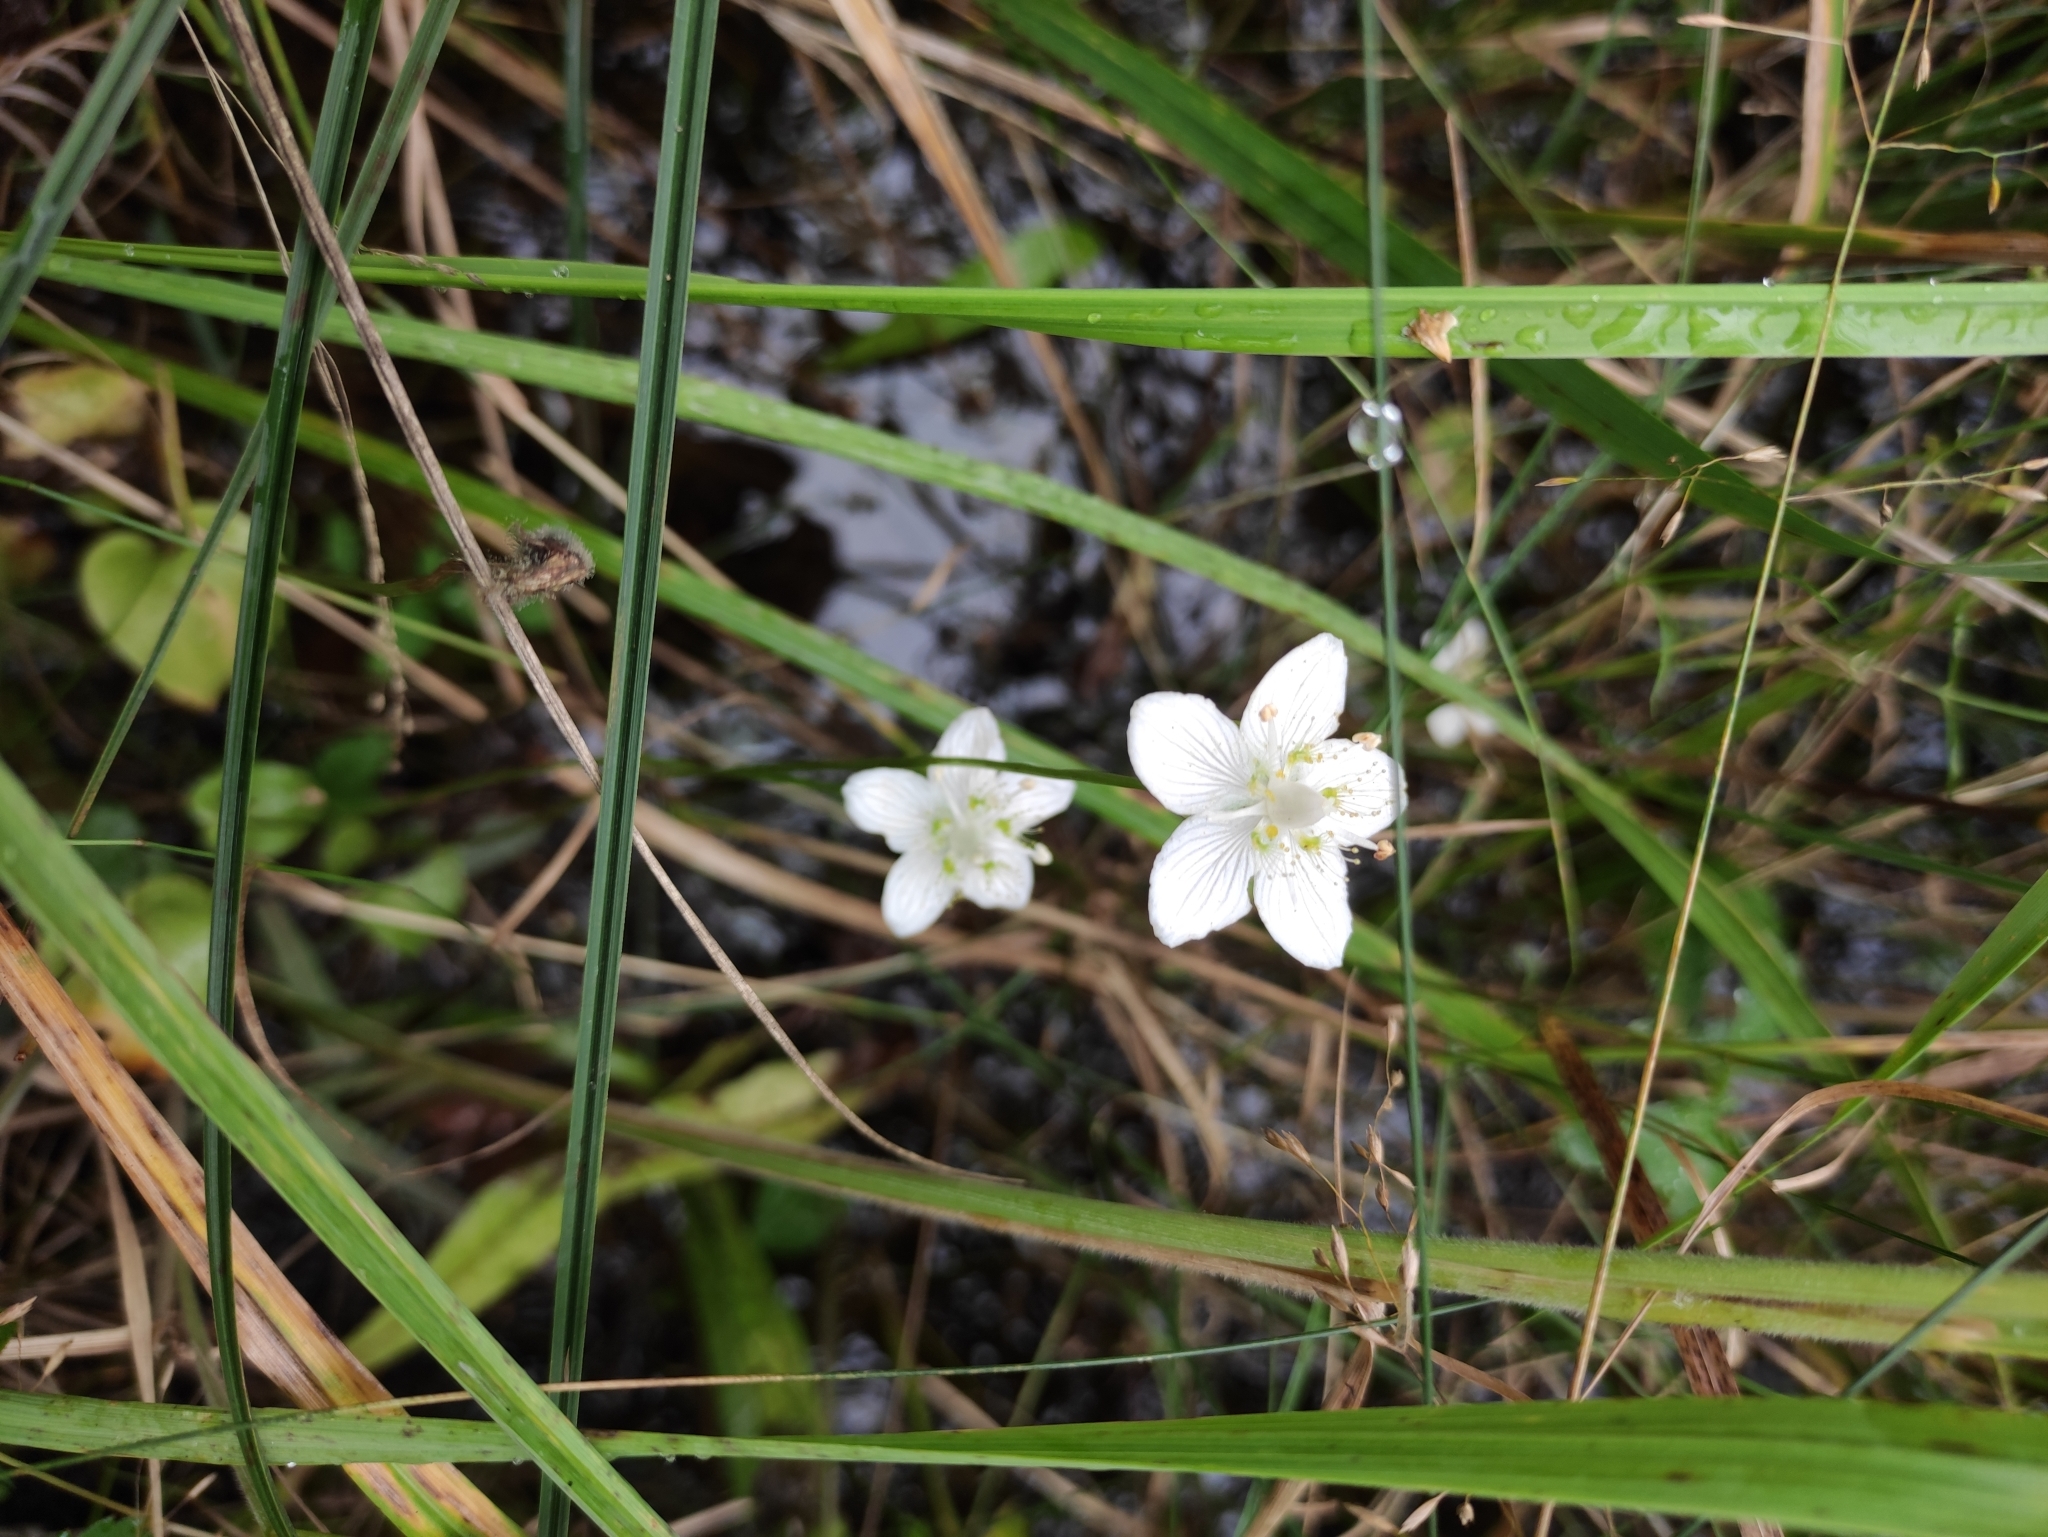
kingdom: Plantae
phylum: Tracheophyta
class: Magnoliopsida
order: Celastrales
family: Parnassiaceae
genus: Parnassia
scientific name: Parnassia palustris
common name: Grass-of-parnassus
